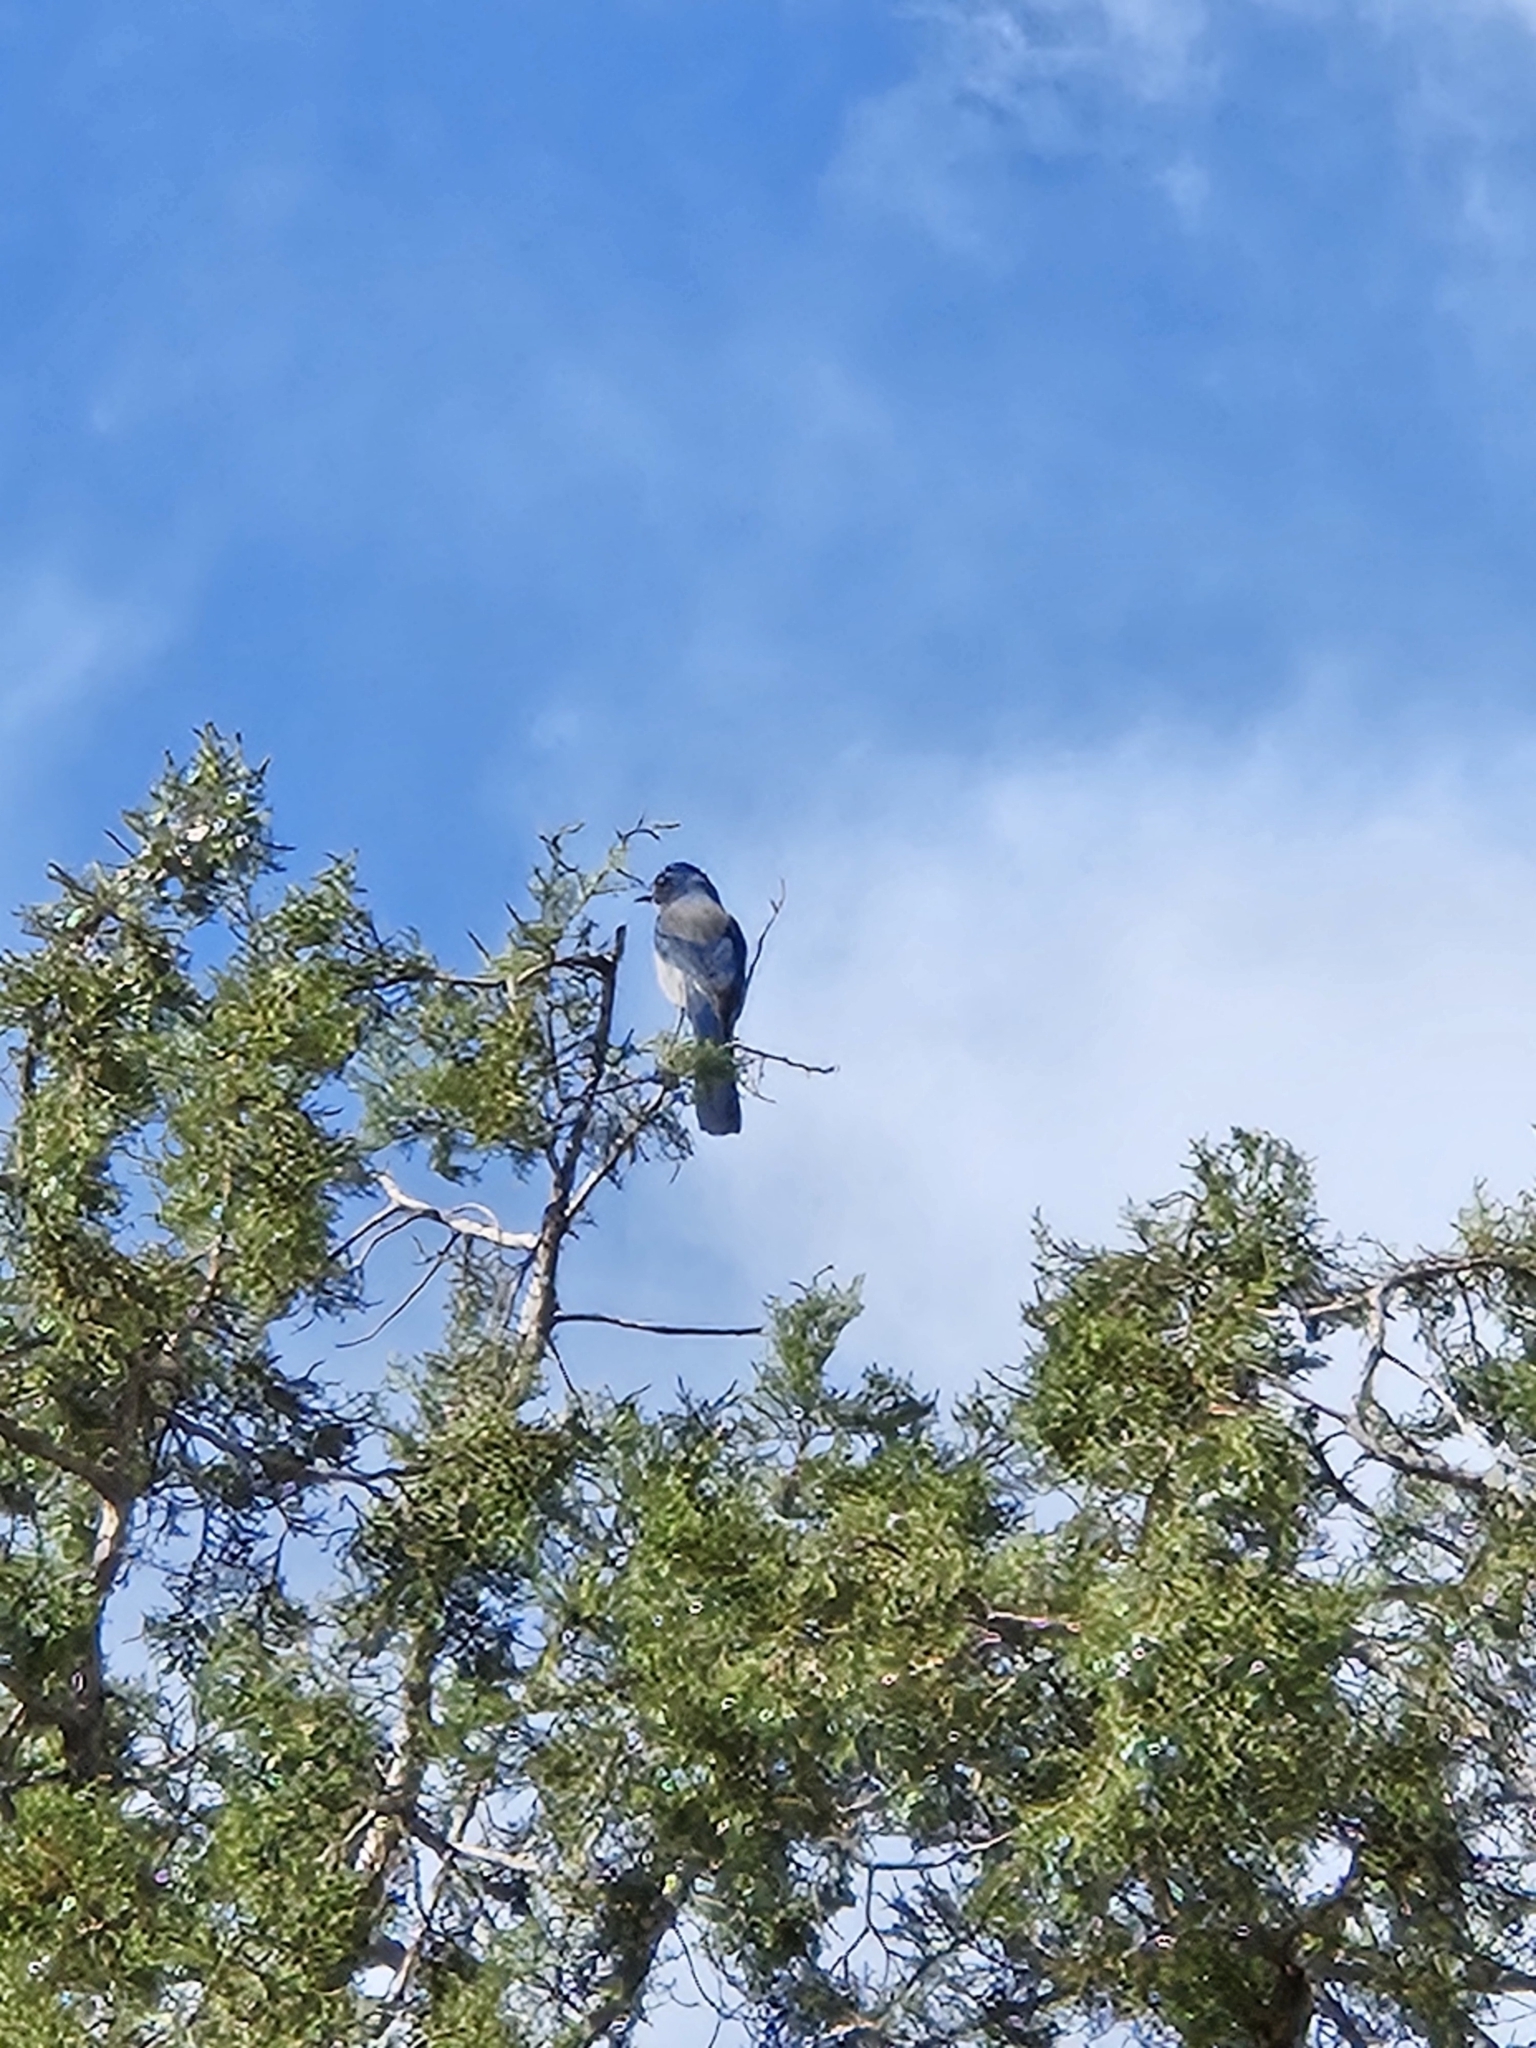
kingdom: Animalia
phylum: Chordata
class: Aves
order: Passeriformes
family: Corvidae
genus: Aphelocoma
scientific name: Aphelocoma woodhouseii
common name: Woodhouse's scrub-jay
